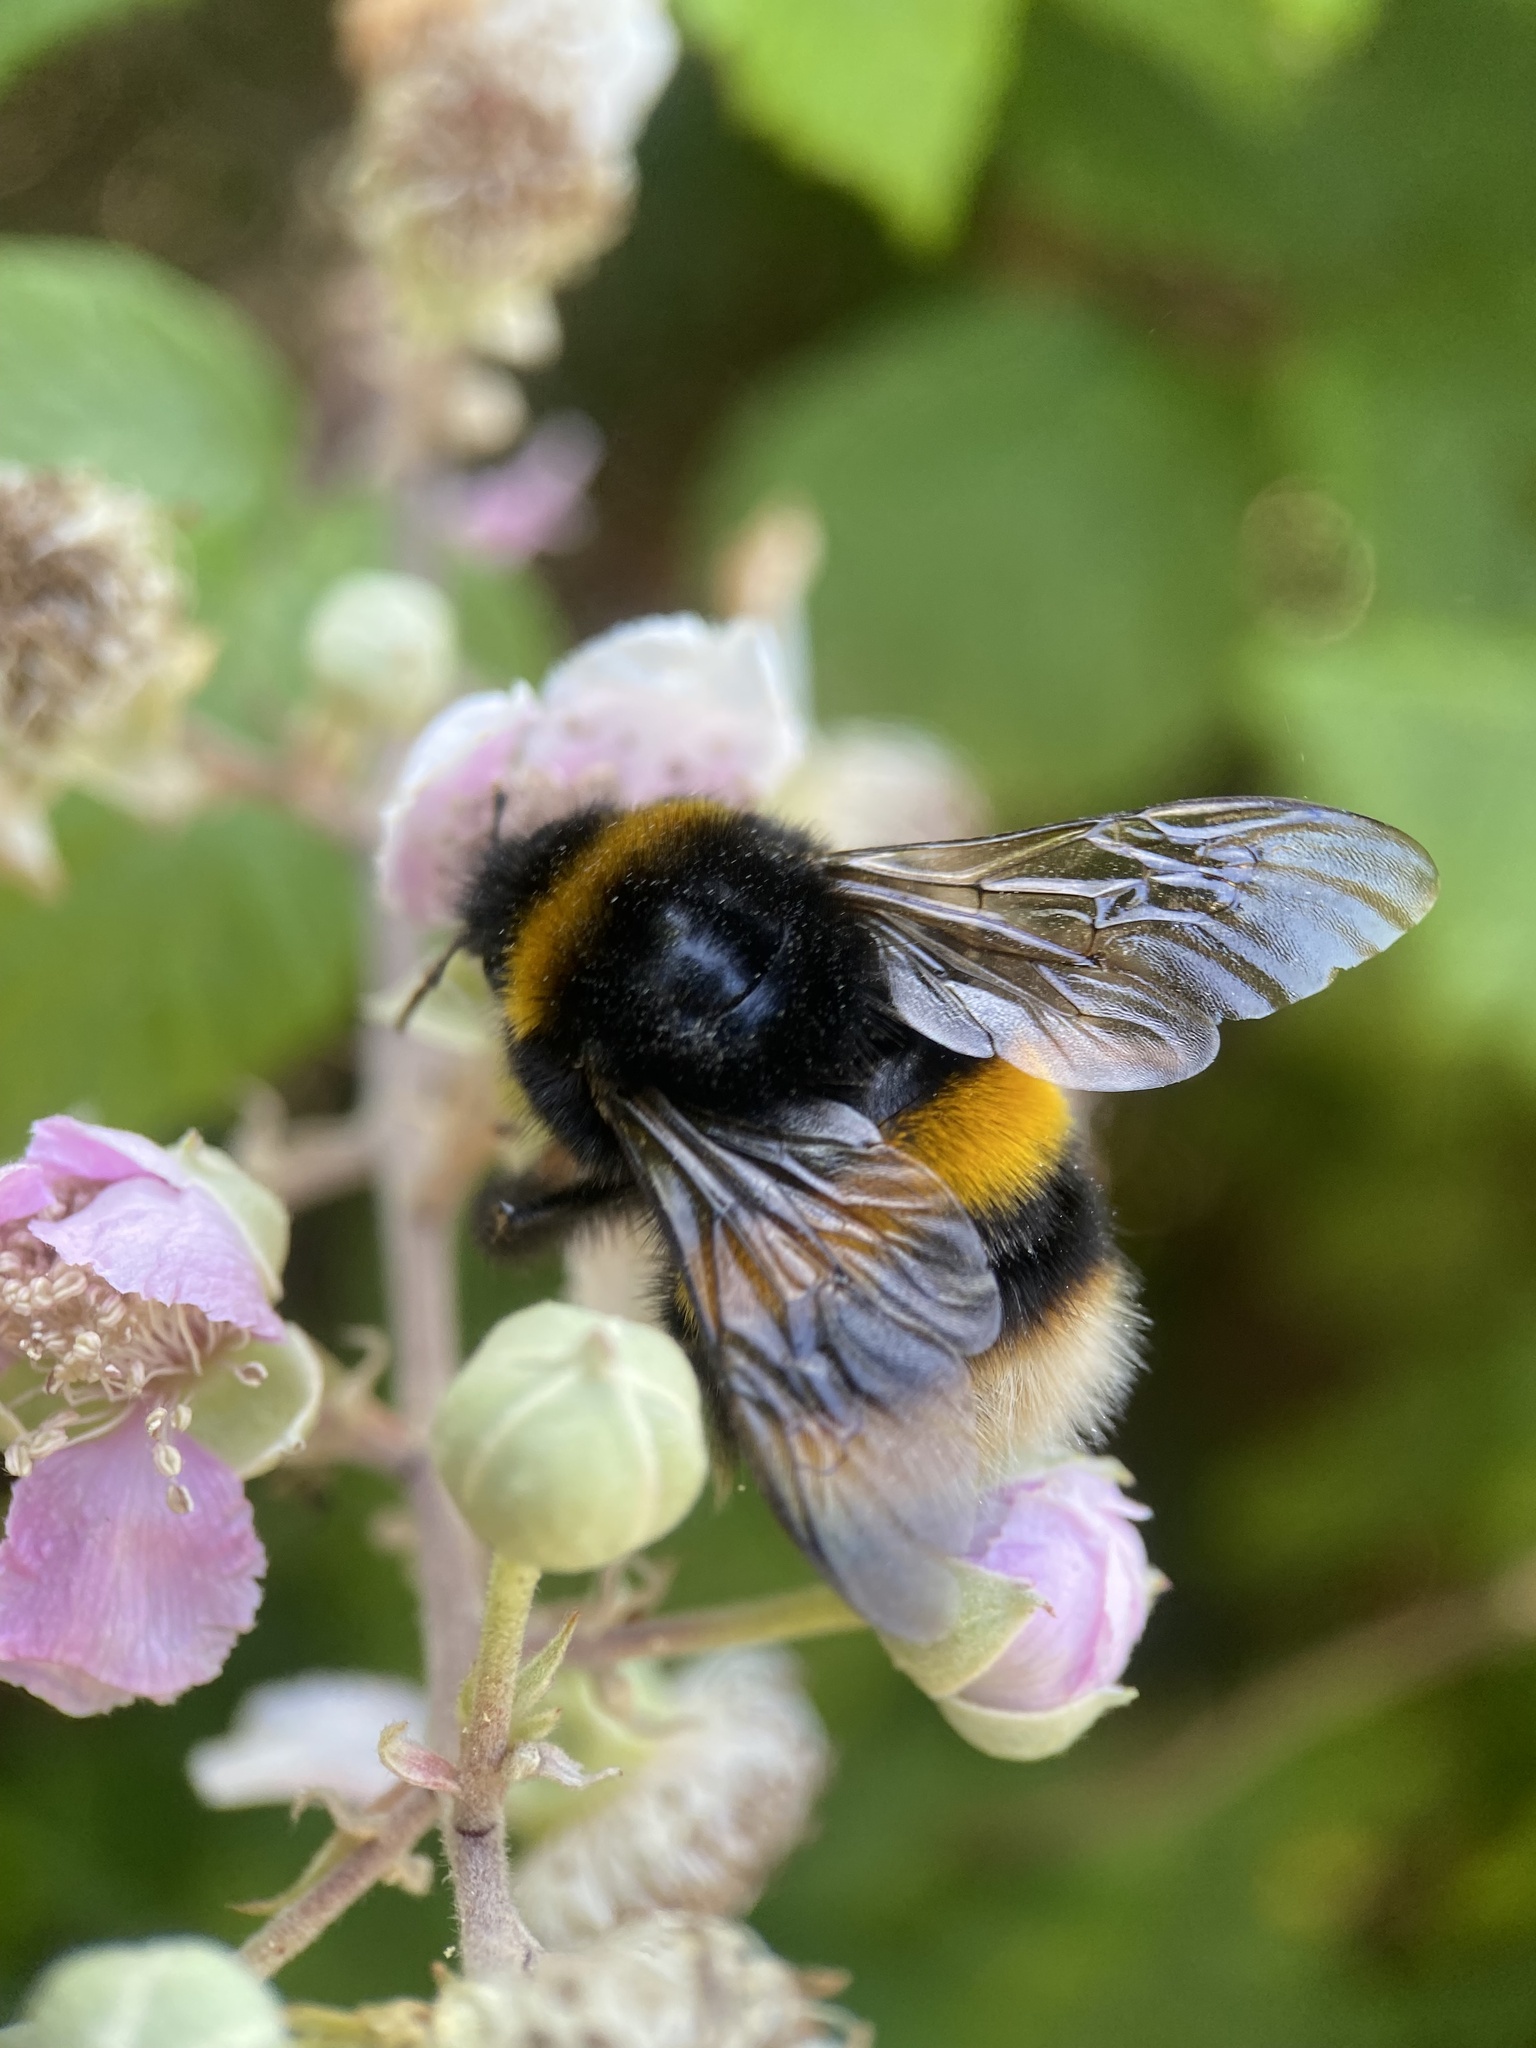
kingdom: Animalia
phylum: Arthropoda
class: Insecta
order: Hymenoptera
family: Apidae
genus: Bombus
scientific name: Bombus terrestris
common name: Buff-tailed bumblebee
